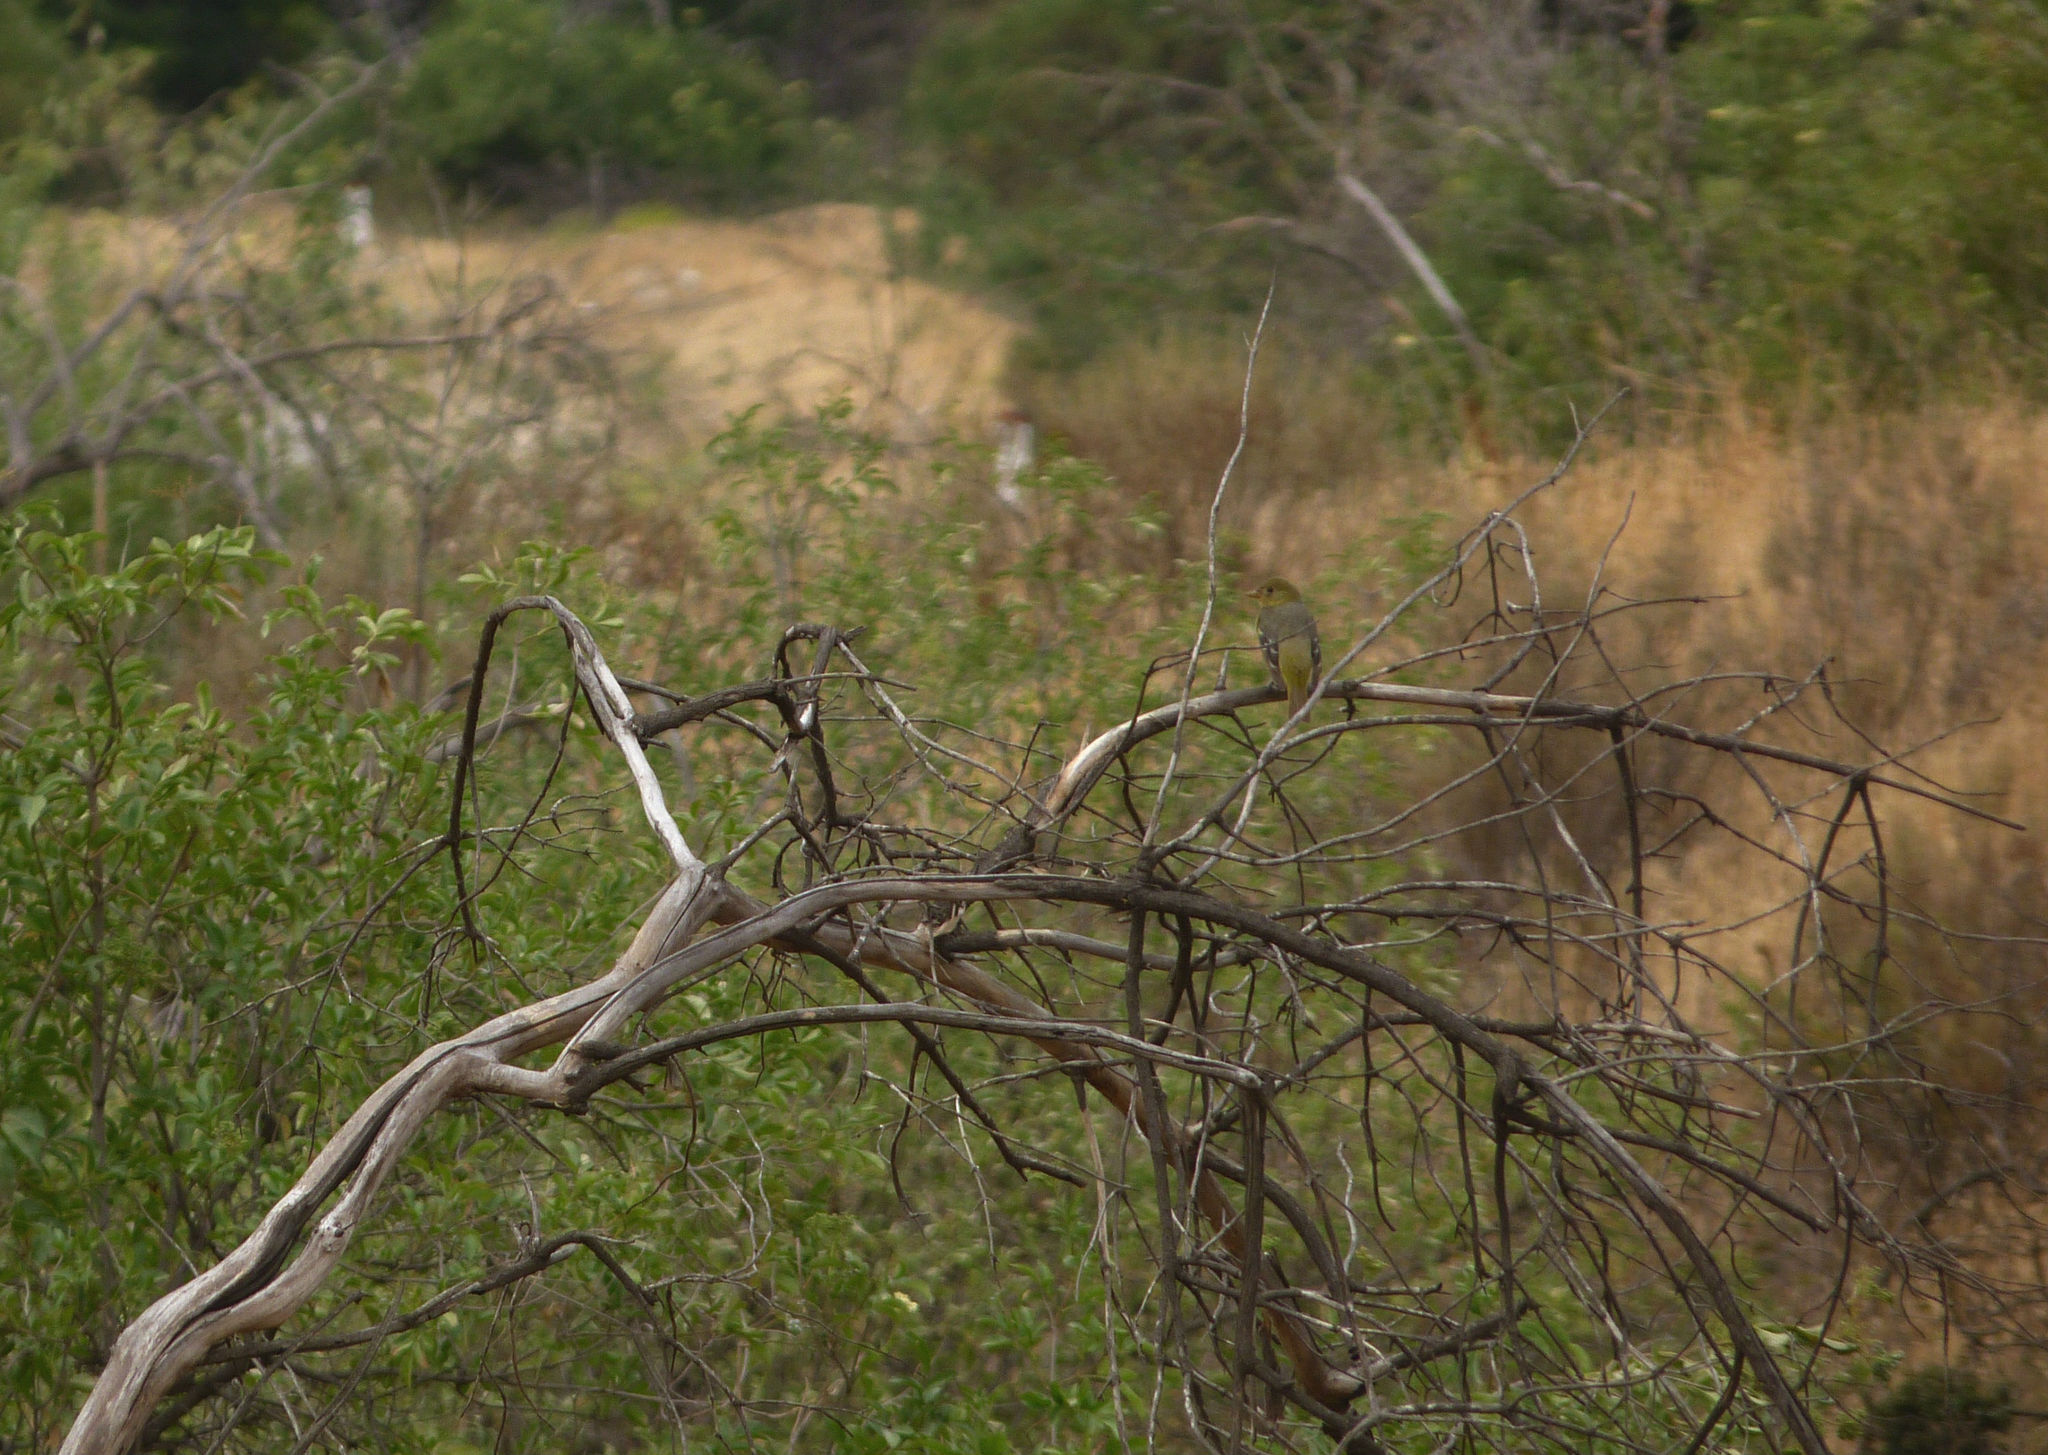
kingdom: Animalia
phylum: Chordata
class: Aves
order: Passeriformes
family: Cardinalidae
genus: Piranga
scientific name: Piranga ludoviciana
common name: Western tanager
